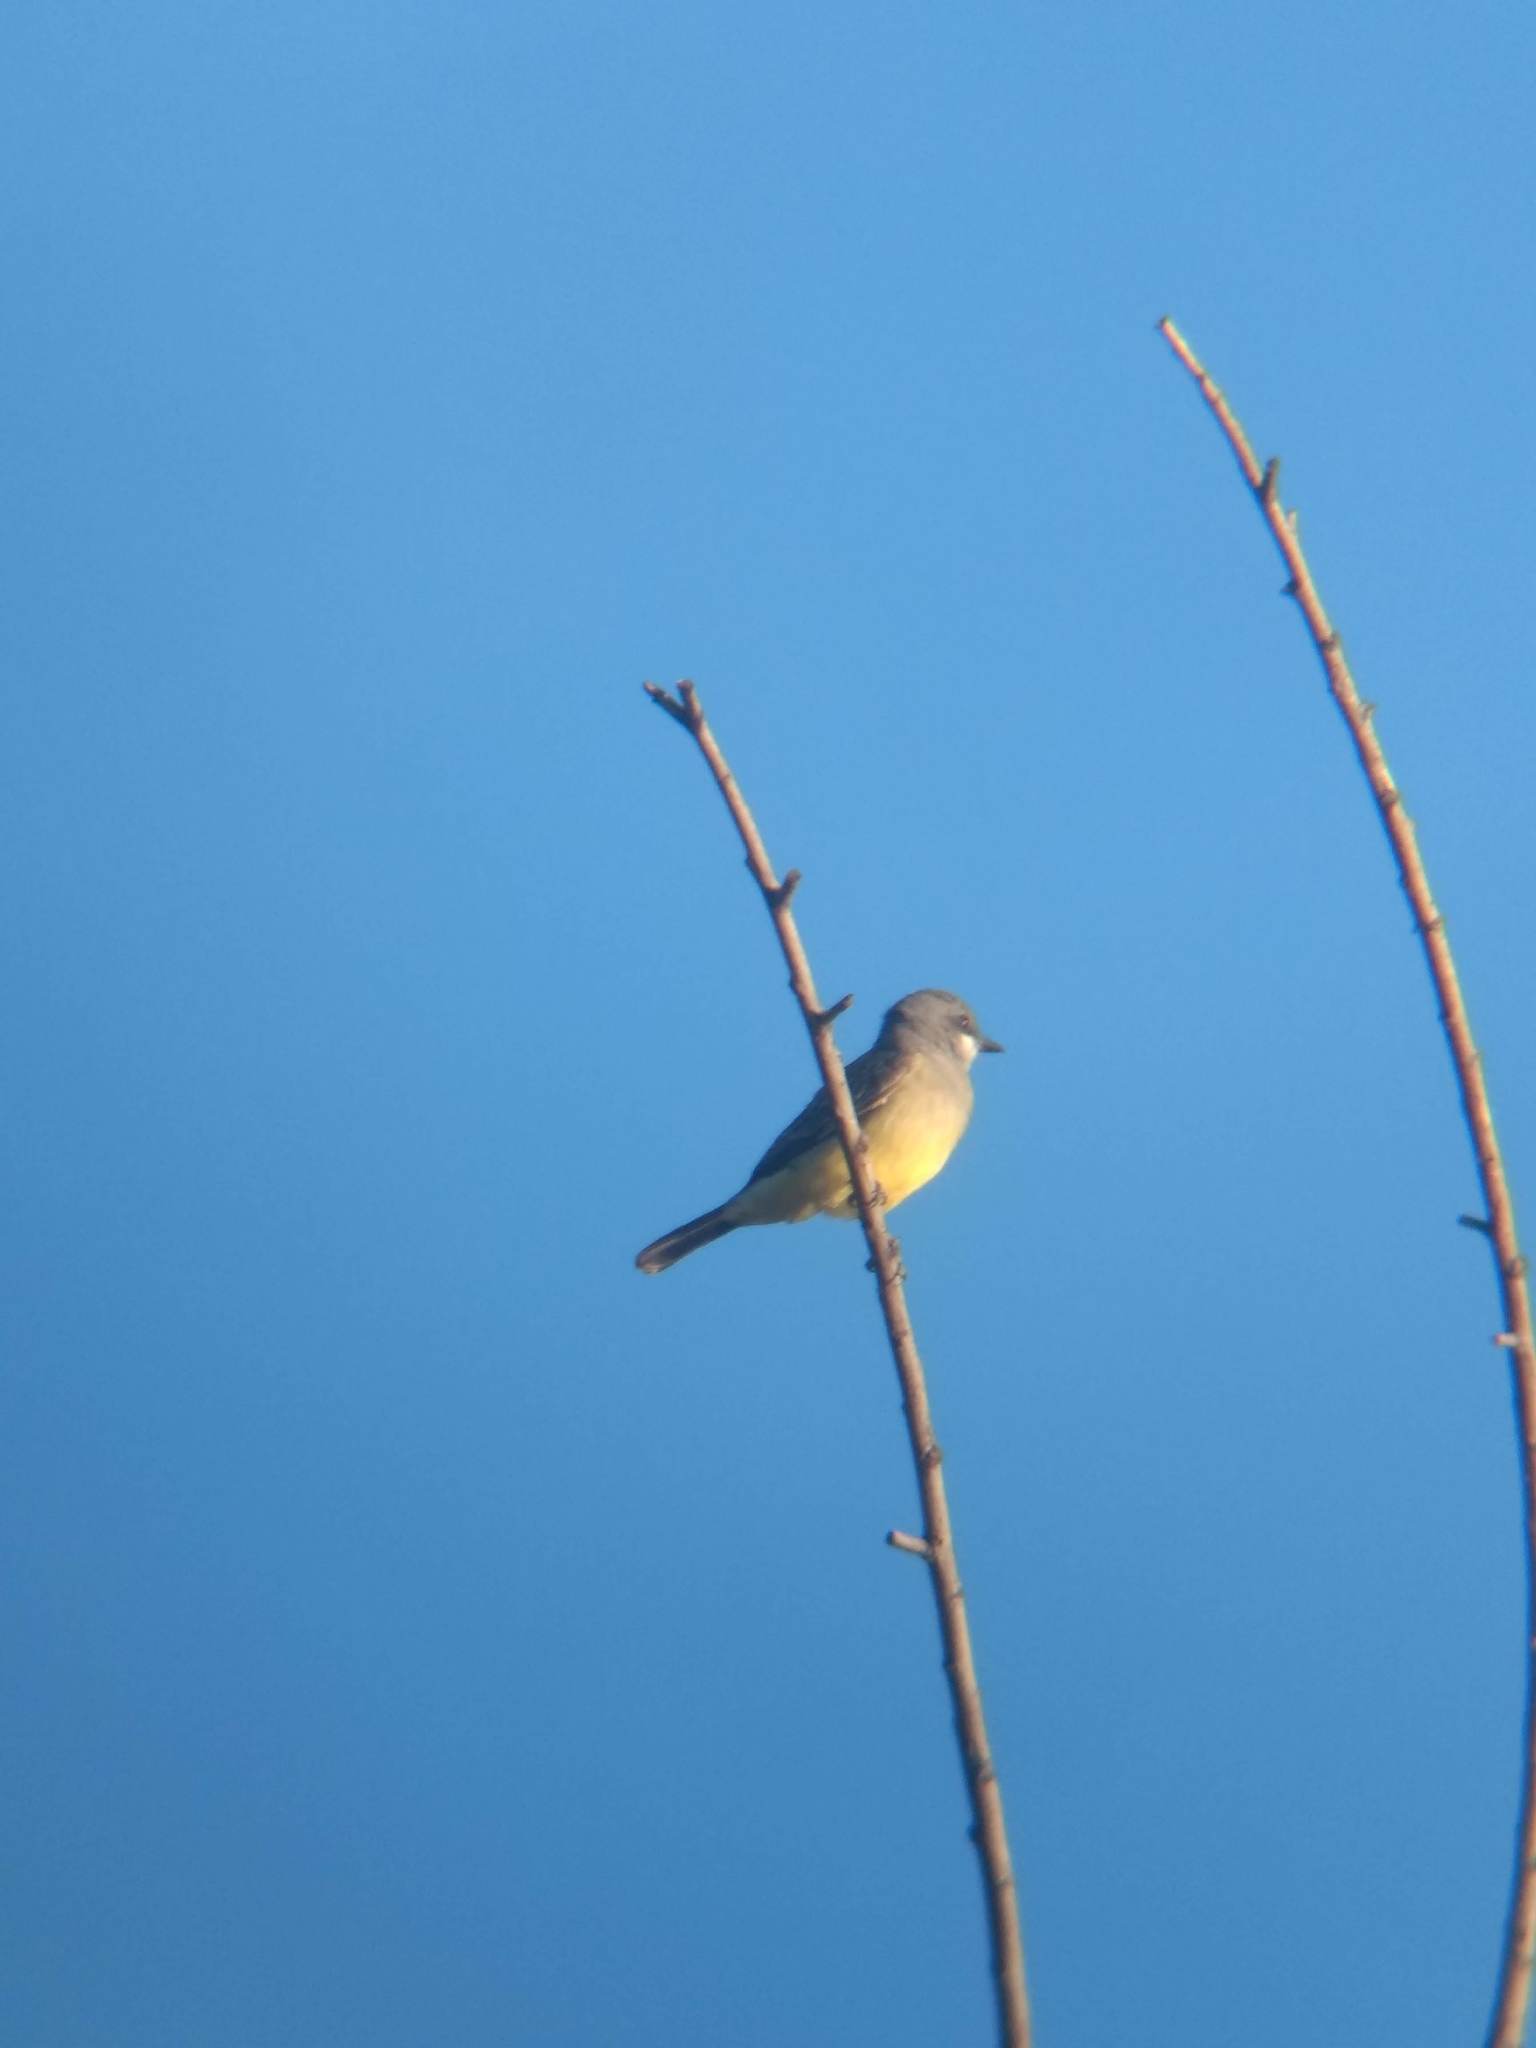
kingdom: Animalia
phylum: Chordata
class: Aves
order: Passeriformes
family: Tyrannidae
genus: Tyrannus
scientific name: Tyrannus vociferans
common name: Cassin's kingbird
